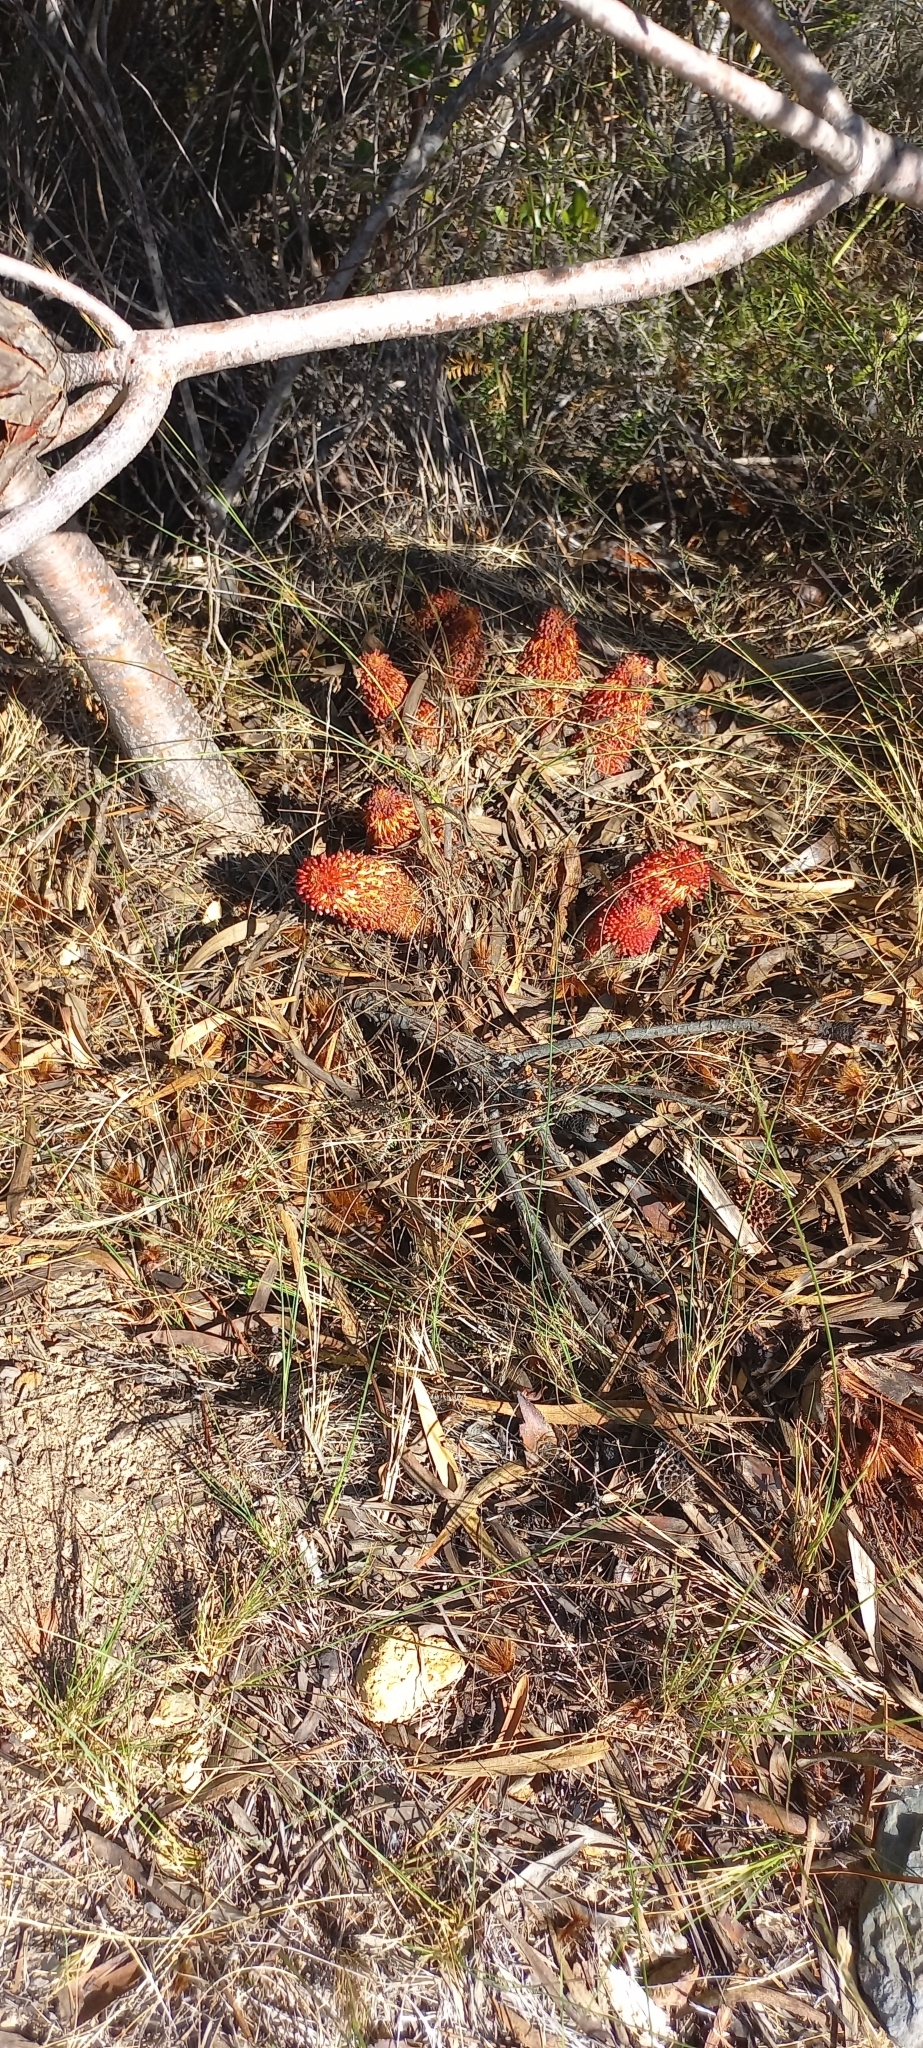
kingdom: Plantae
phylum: Tracheophyta
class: Magnoliopsida
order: Santalales
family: Mystropetalaceae
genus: Mystropetalon
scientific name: Mystropetalon thomii
